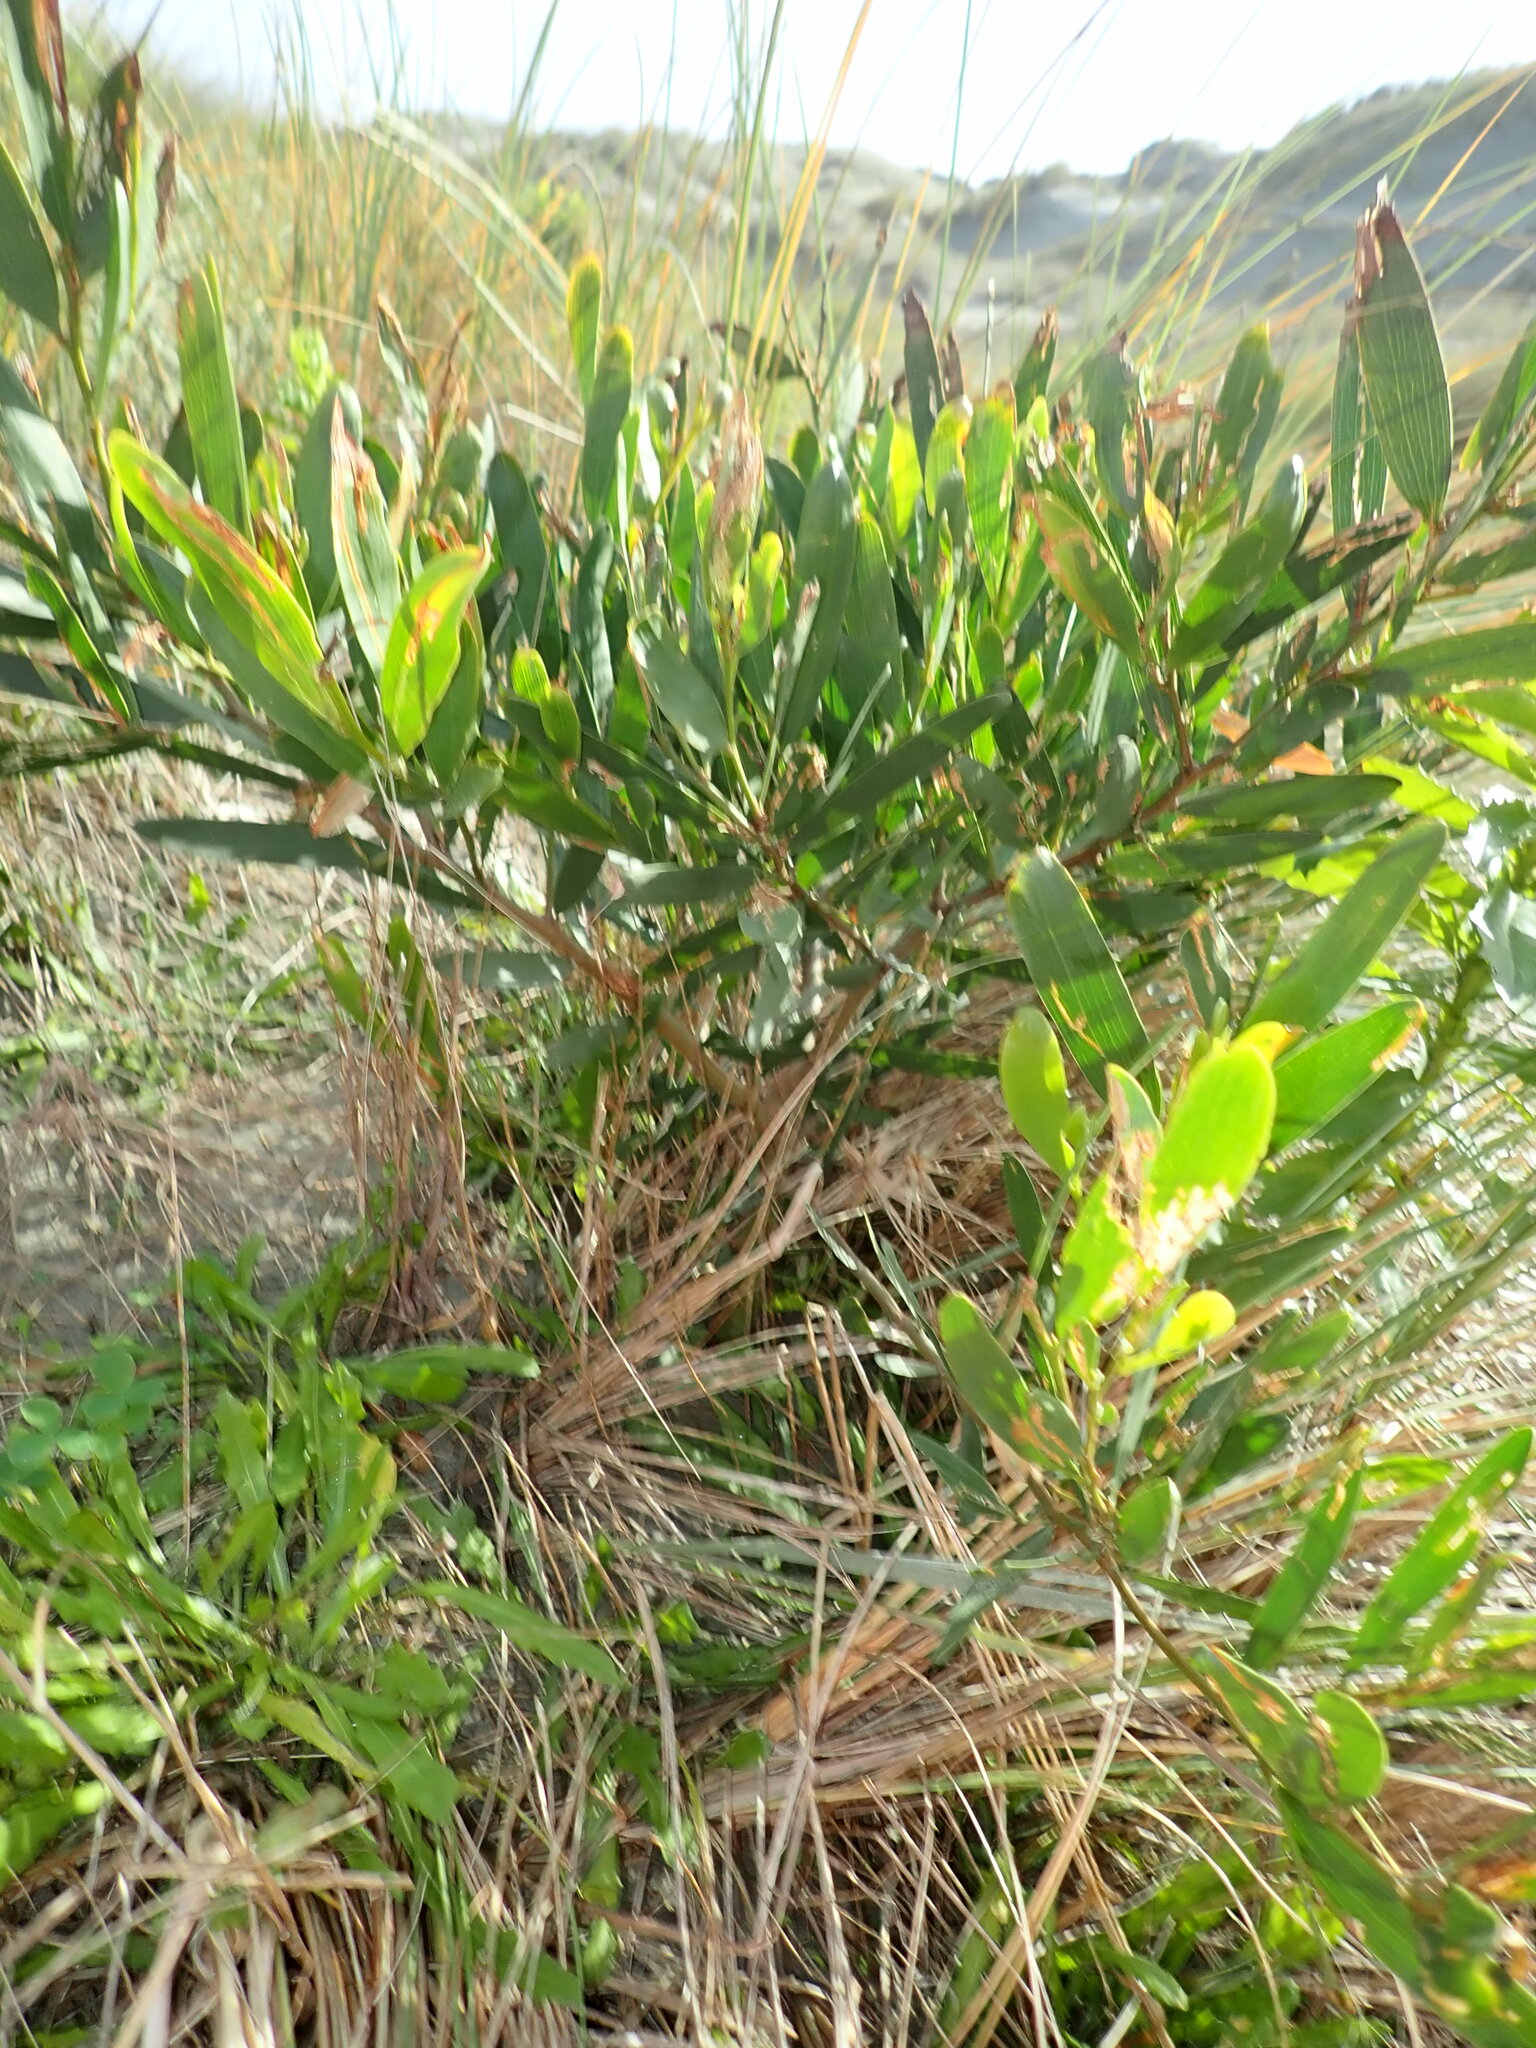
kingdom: Plantae
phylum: Tracheophyta
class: Magnoliopsida
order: Fabales
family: Fabaceae
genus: Acacia
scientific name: Acacia longifolia
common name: Sydney golden wattle
